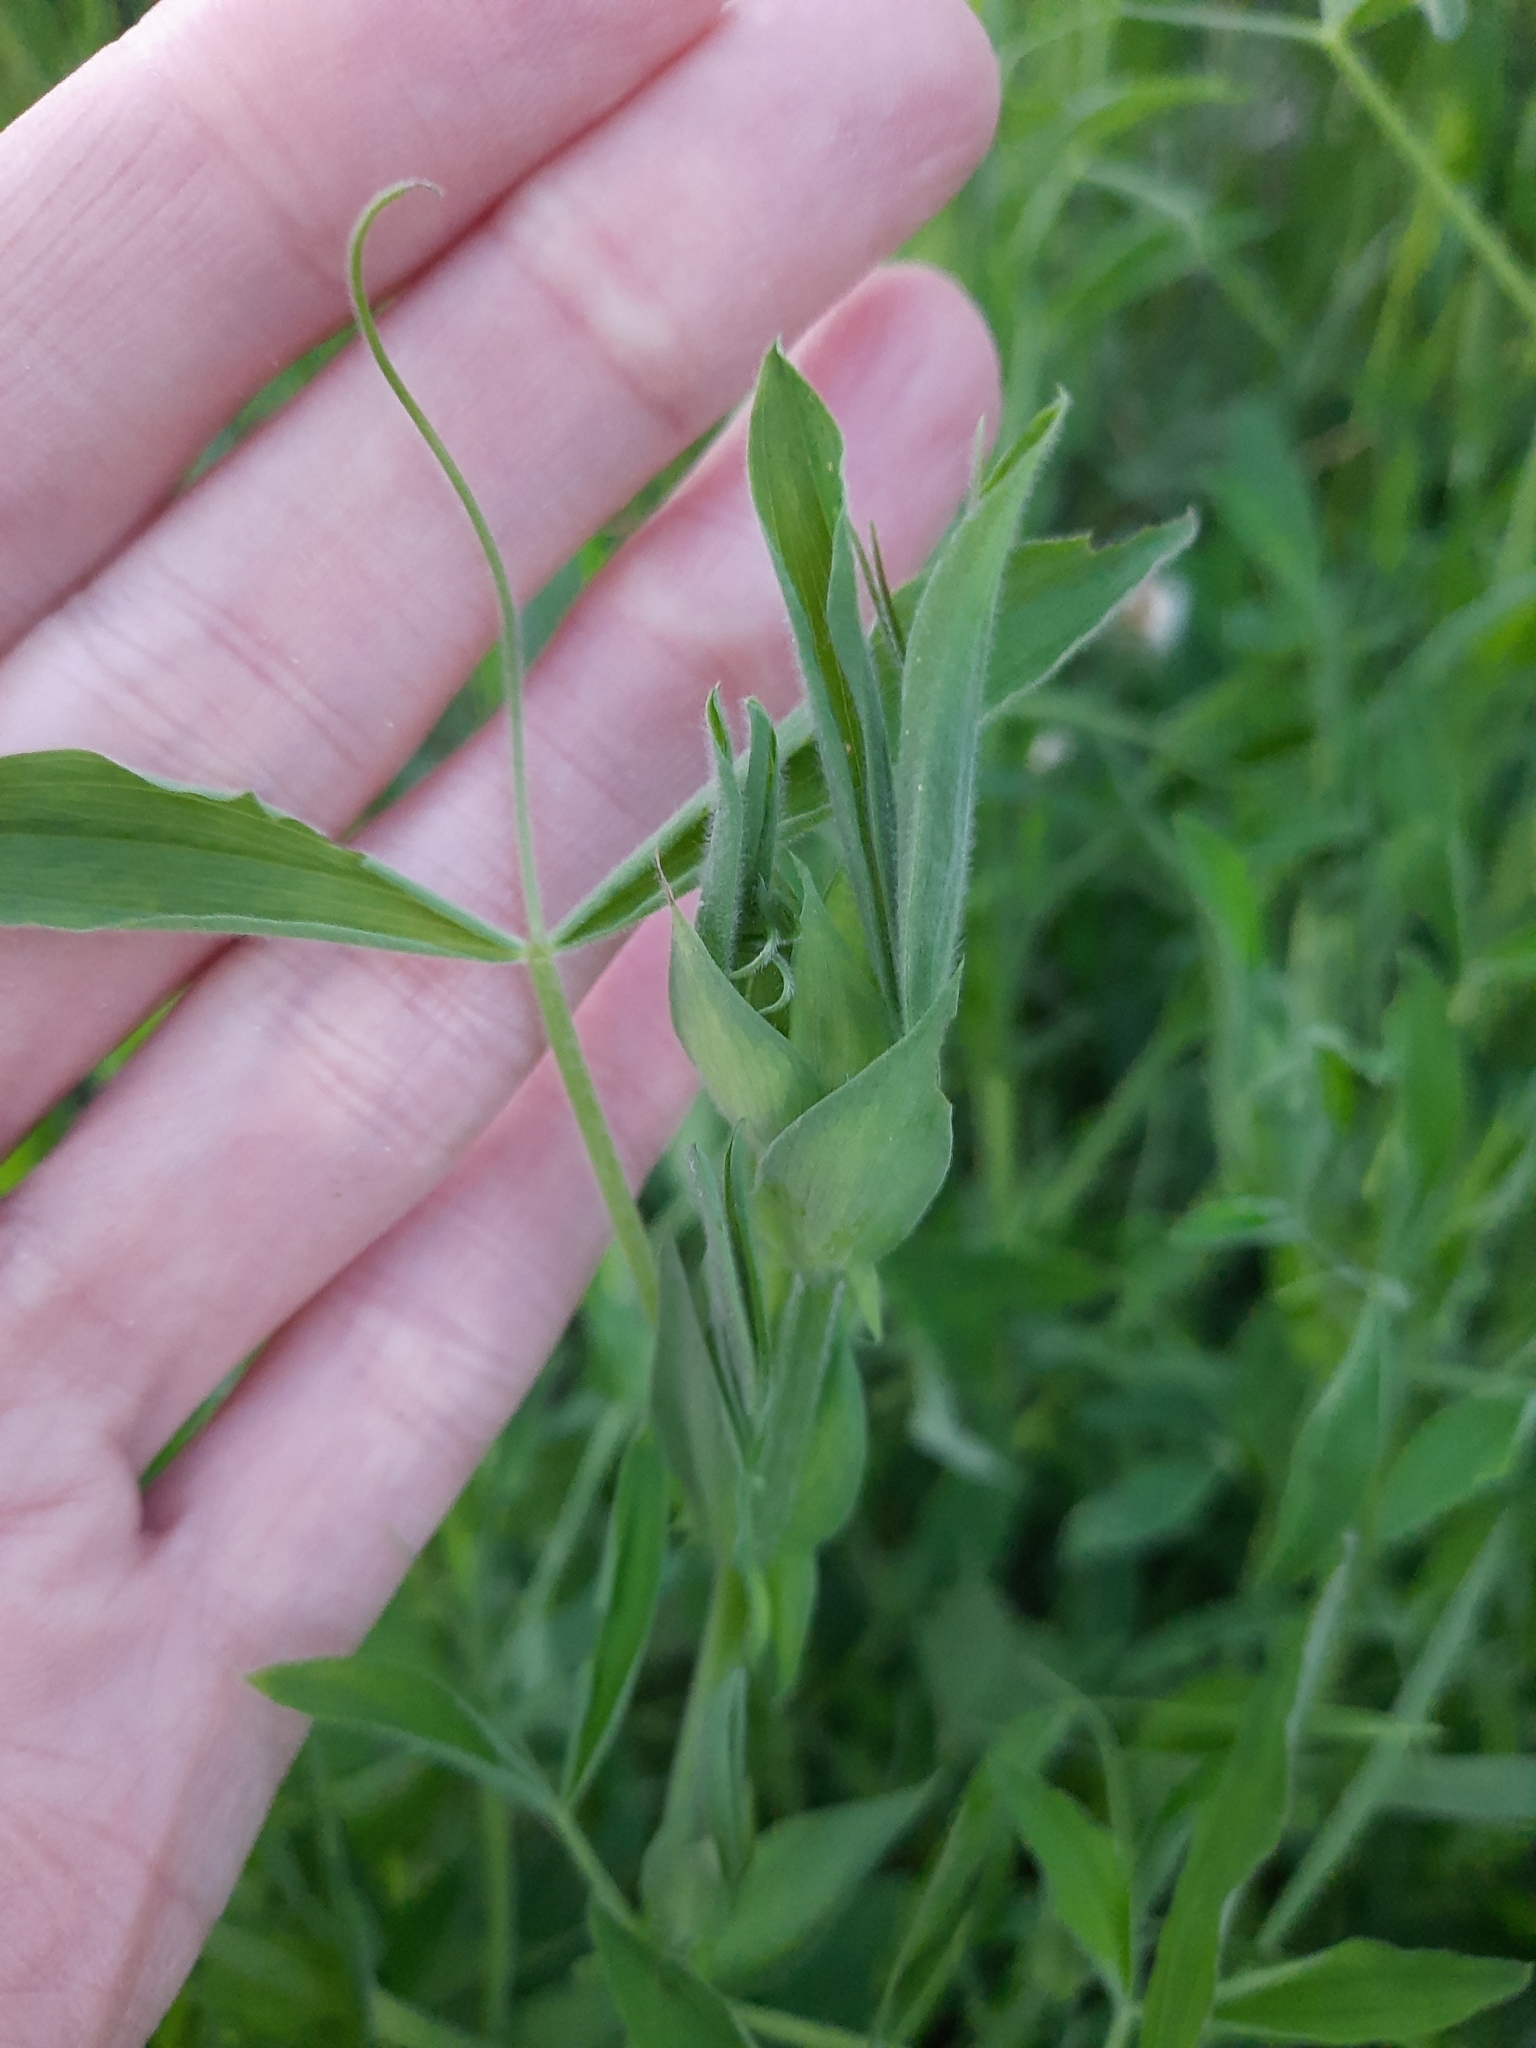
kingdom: Plantae
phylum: Tracheophyta
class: Magnoliopsida
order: Fabales
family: Fabaceae
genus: Lathyrus
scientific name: Lathyrus pratensis
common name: Meadow vetchling
